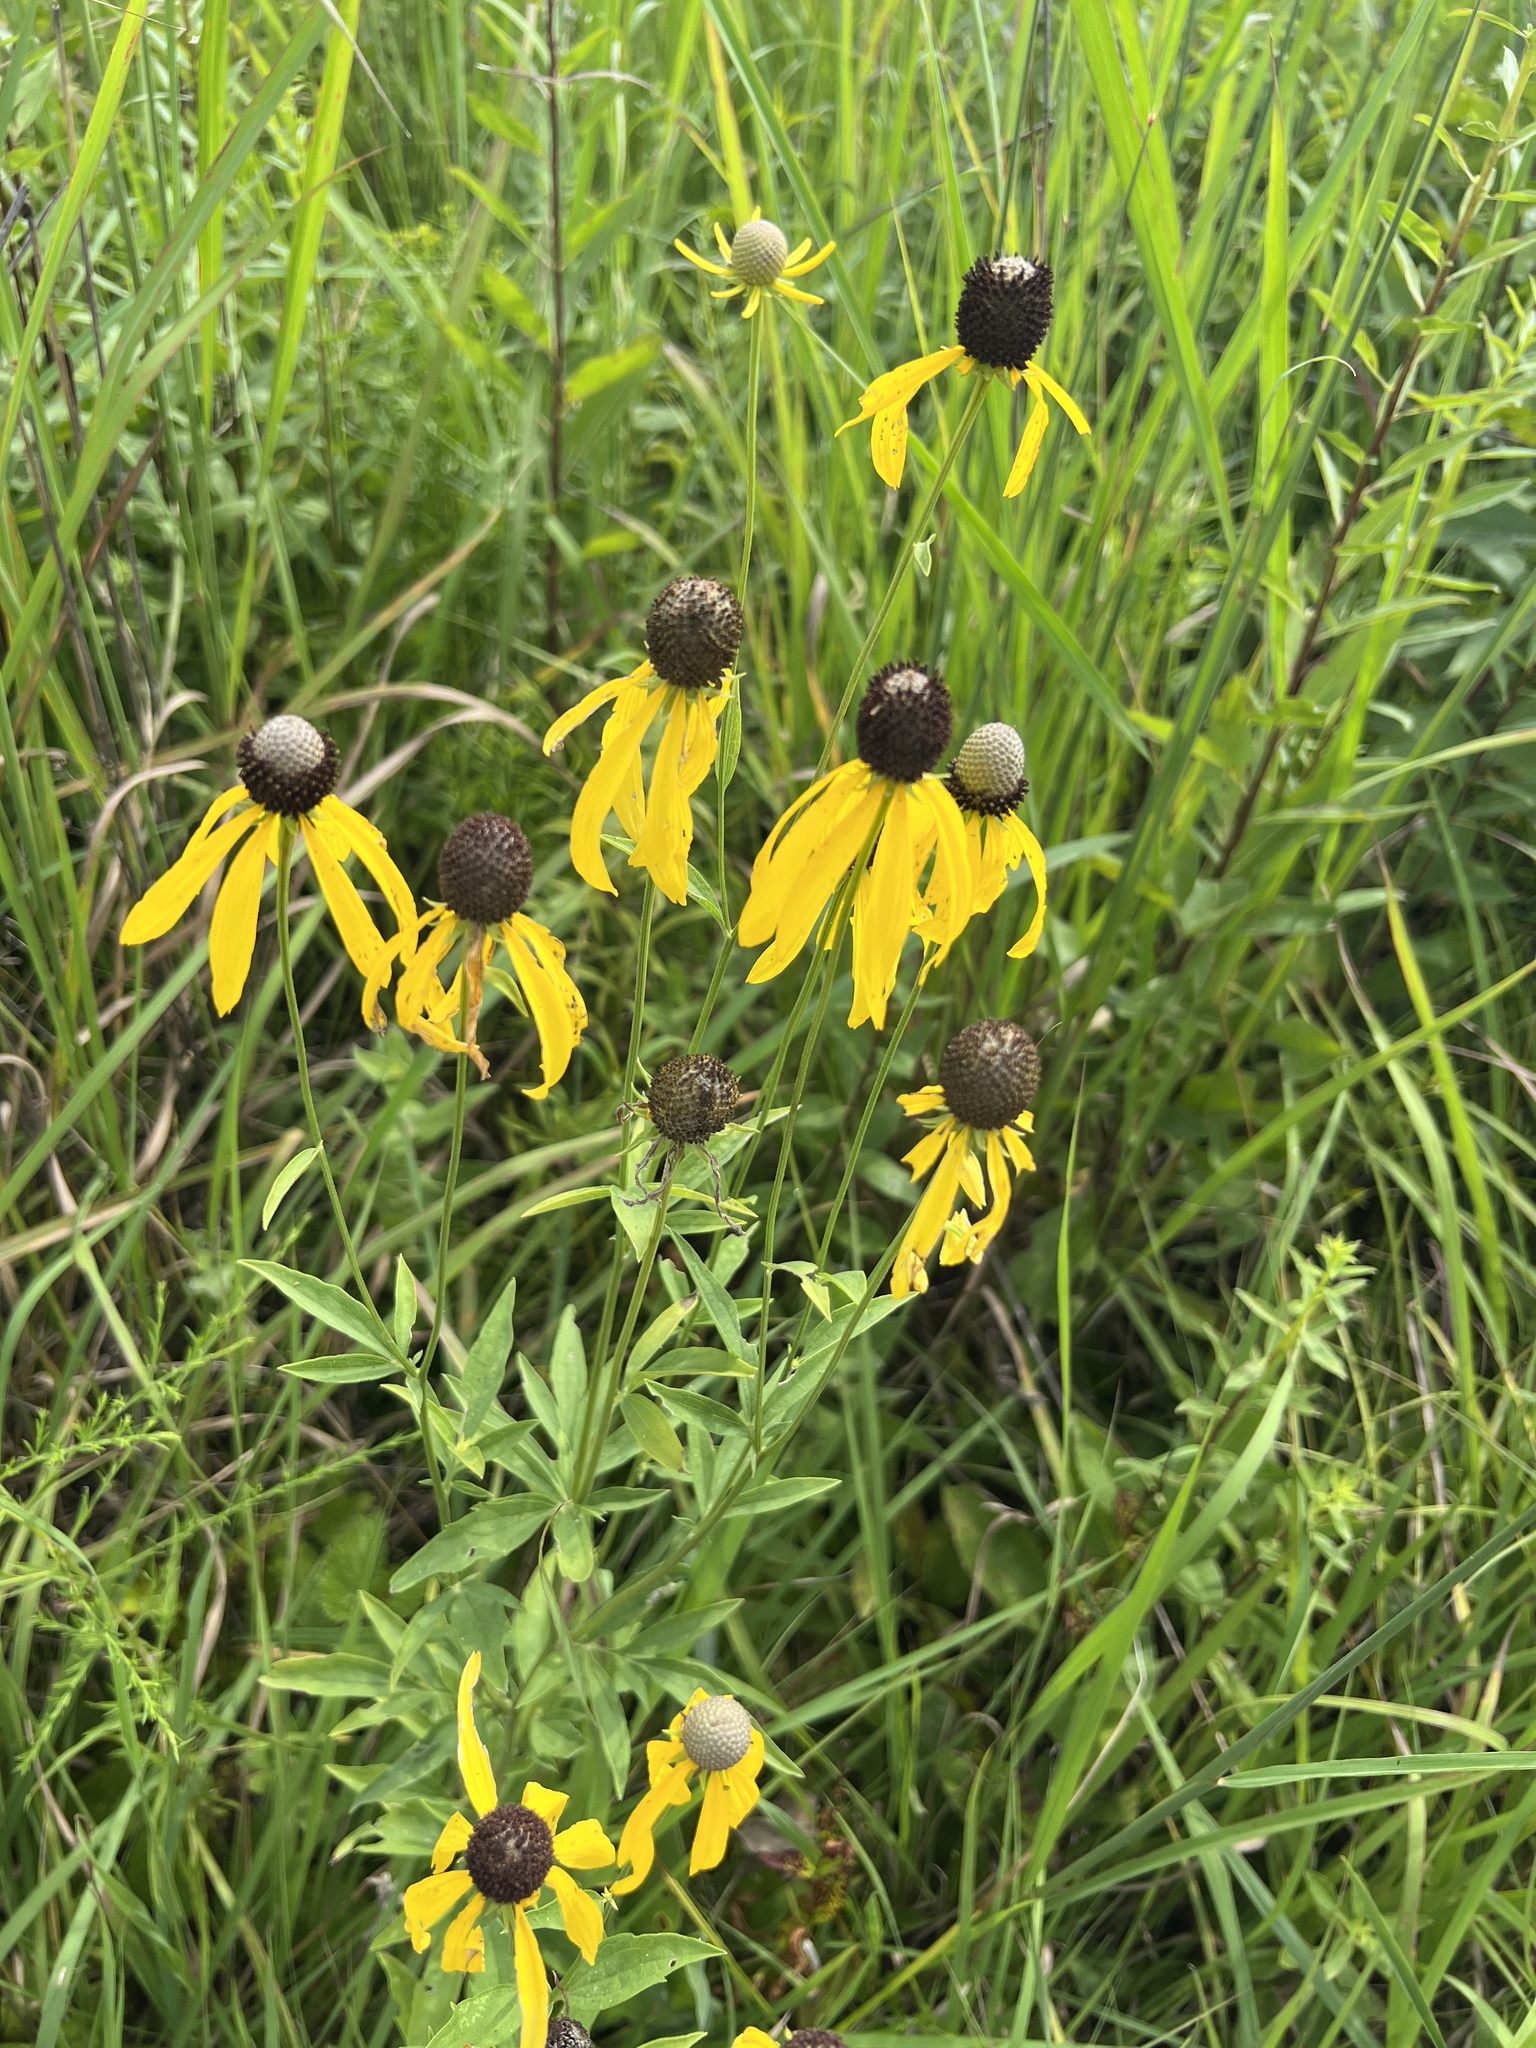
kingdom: Plantae
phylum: Tracheophyta
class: Magnoliopsida
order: Asterales
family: Asteraceae
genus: Ratibida
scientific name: Ratibida pinnata
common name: Drooping prairie-coneflower
